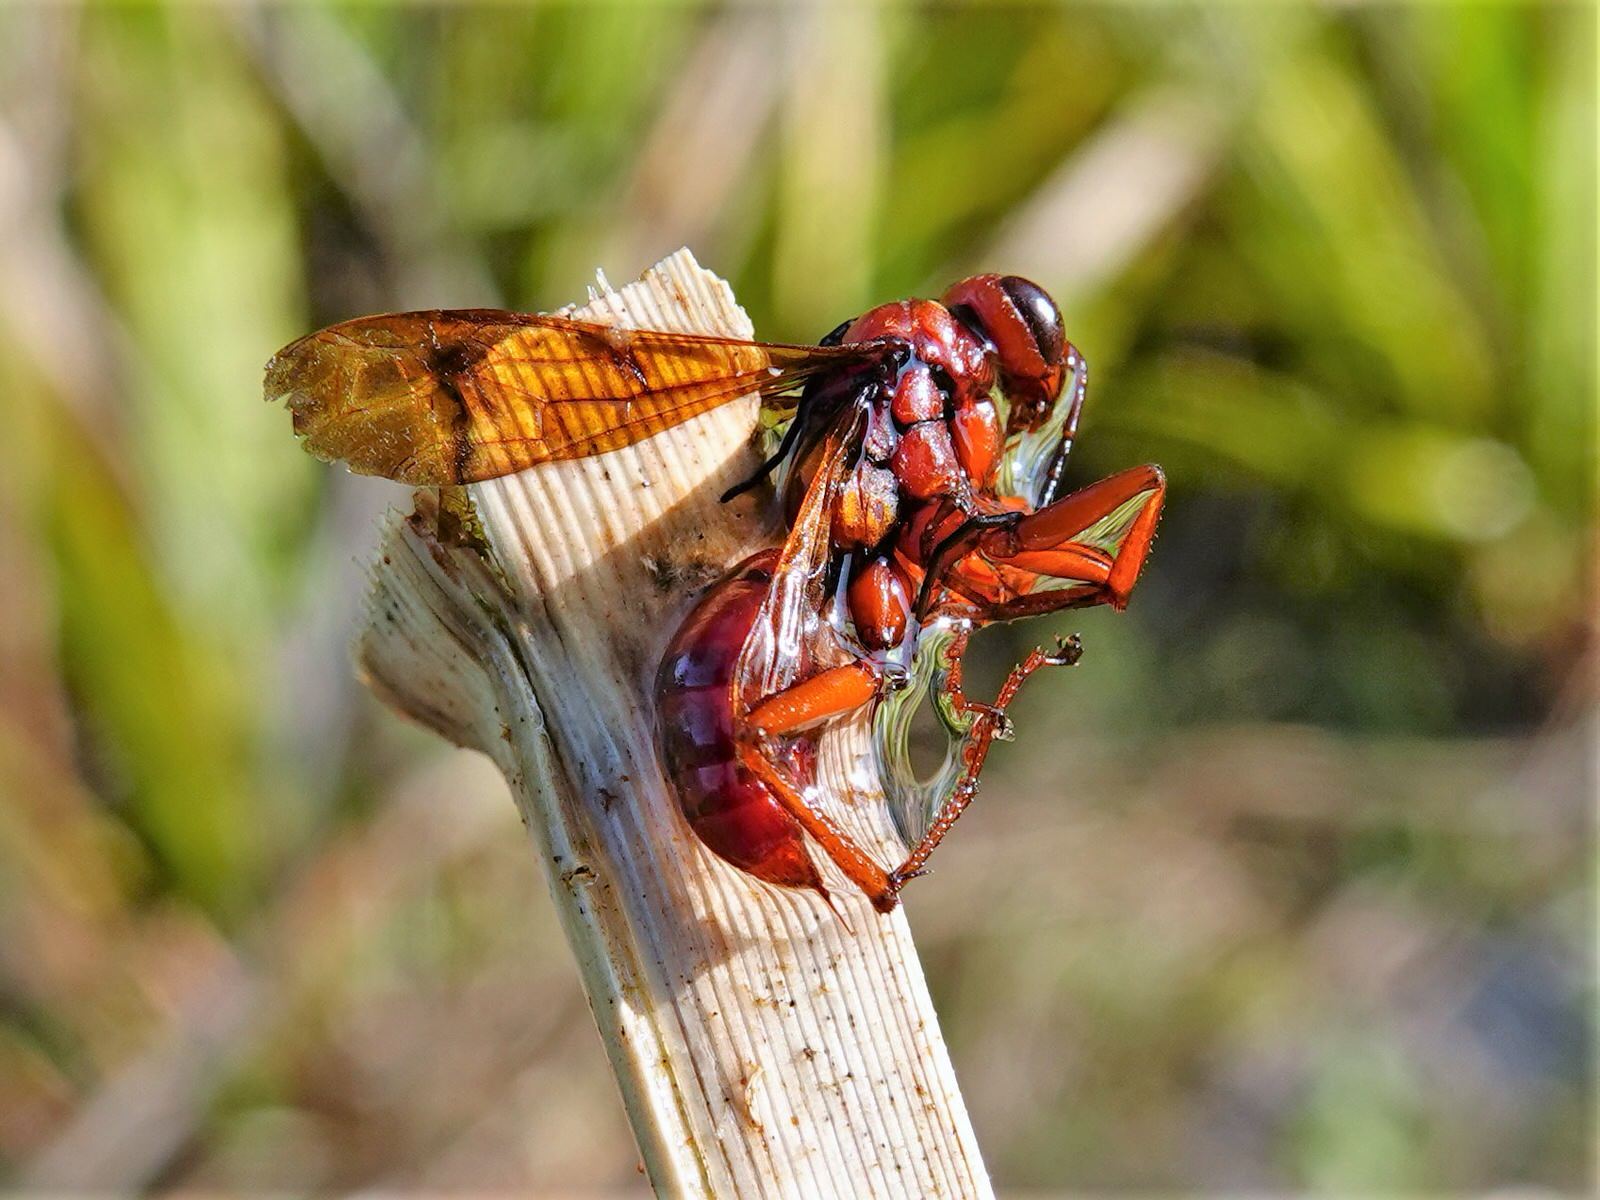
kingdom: Animalia
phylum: Arthropoda
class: Insecta
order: Hymenoptera
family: Pompilidae
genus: Sphictostethus
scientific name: Sphictostethus nitidus
